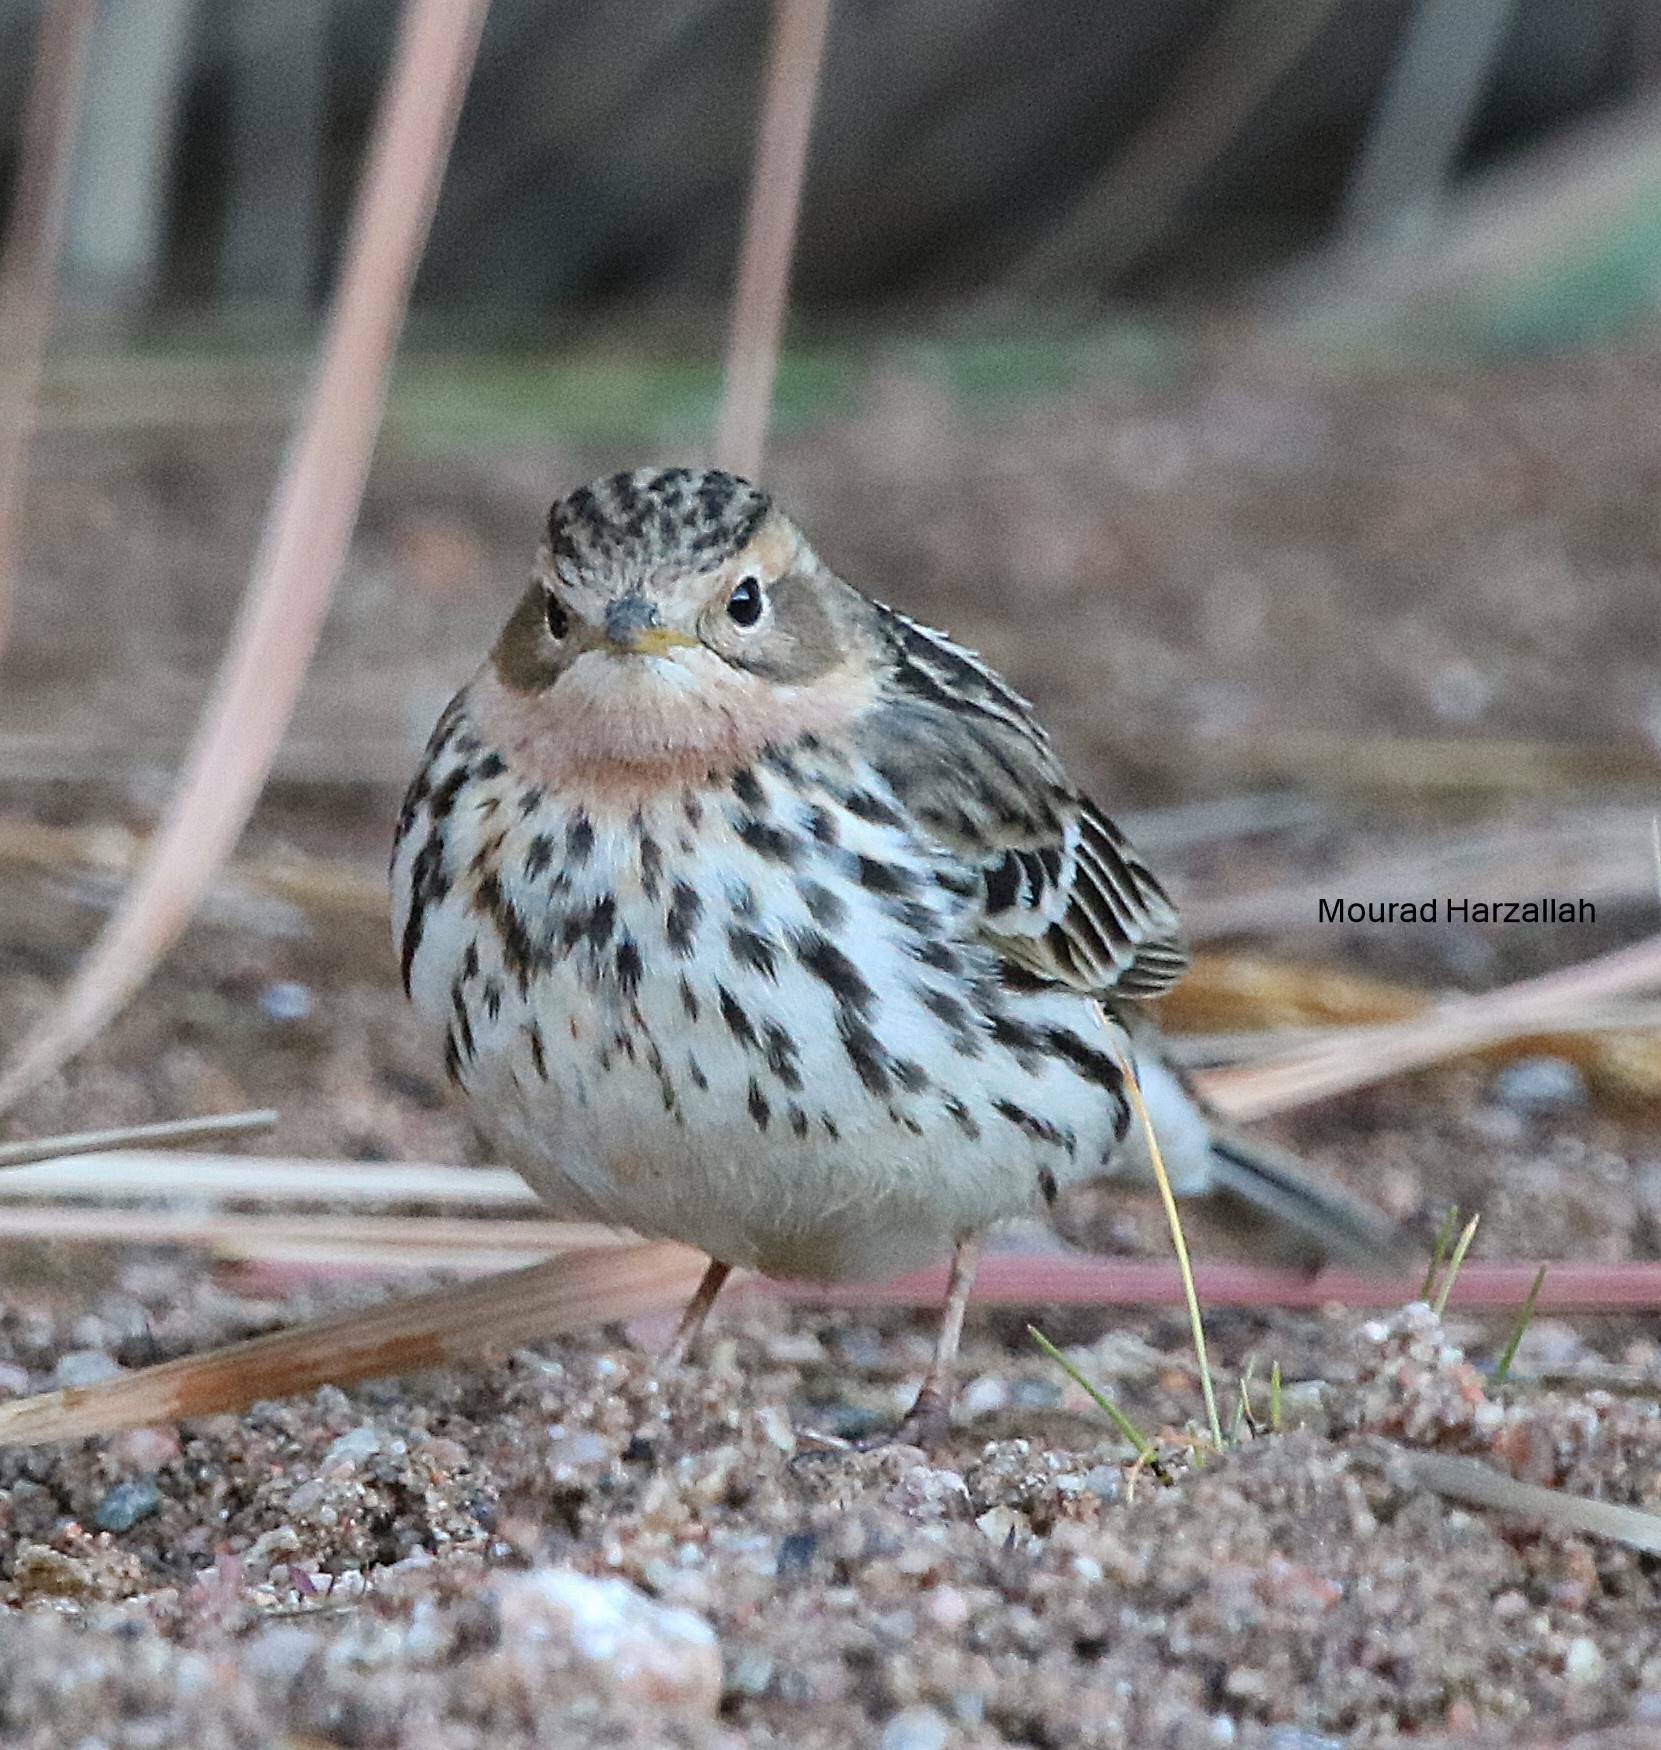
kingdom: Animalia
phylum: Chordata
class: Aves
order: Passeriformes
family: Motacillidae
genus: Anthus
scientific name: Anthus cervinus
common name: Red-throated pipit
